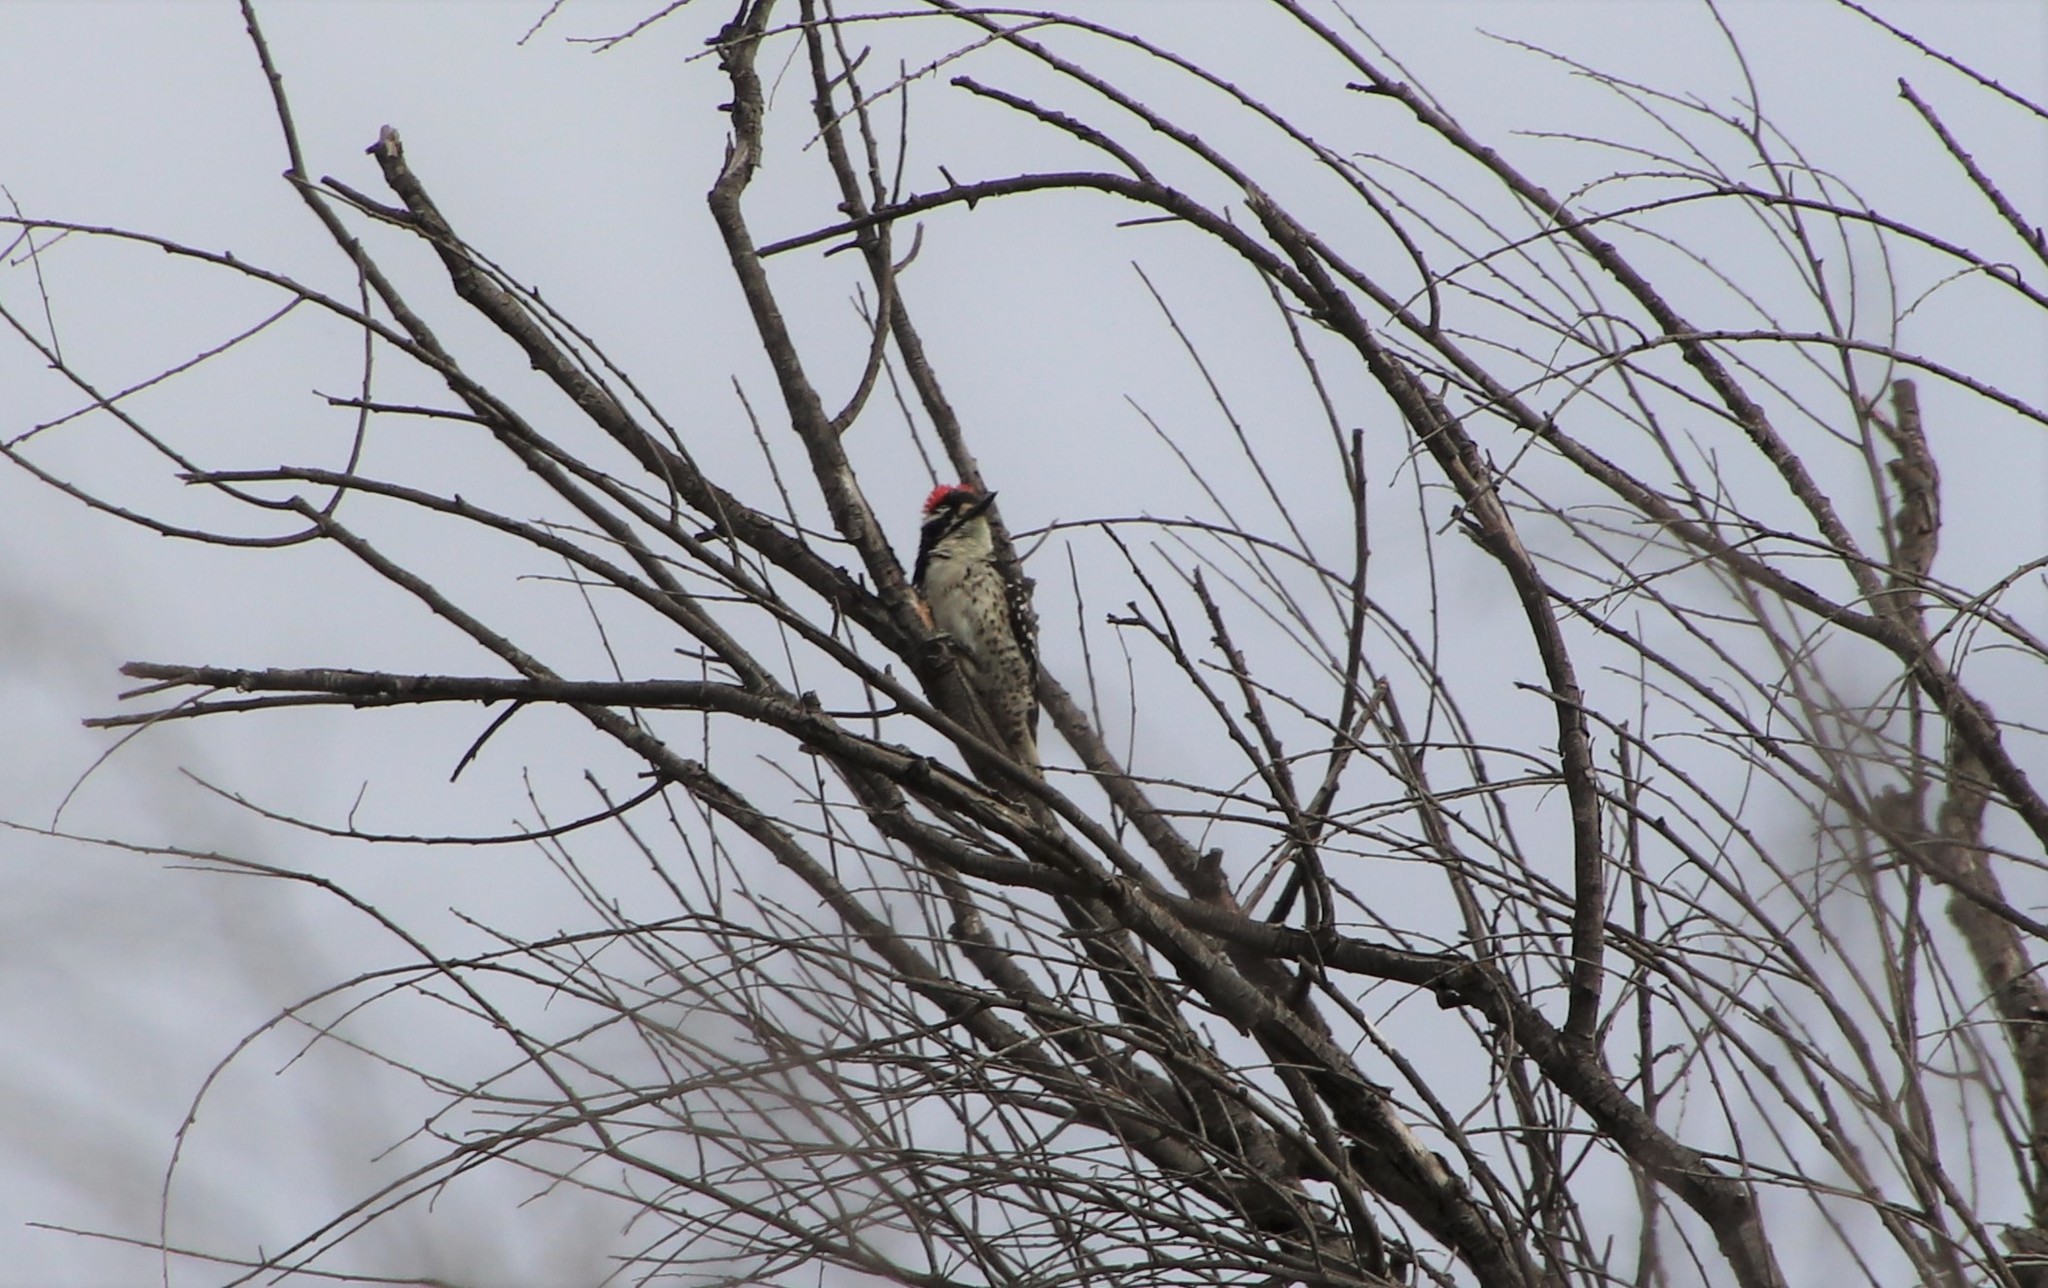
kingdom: Animalia
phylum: Chordata
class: Aves
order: Piciformes
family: Picidae
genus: Dryobates
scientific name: Dryobates nuttallii
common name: Nuttall's woodpecker
